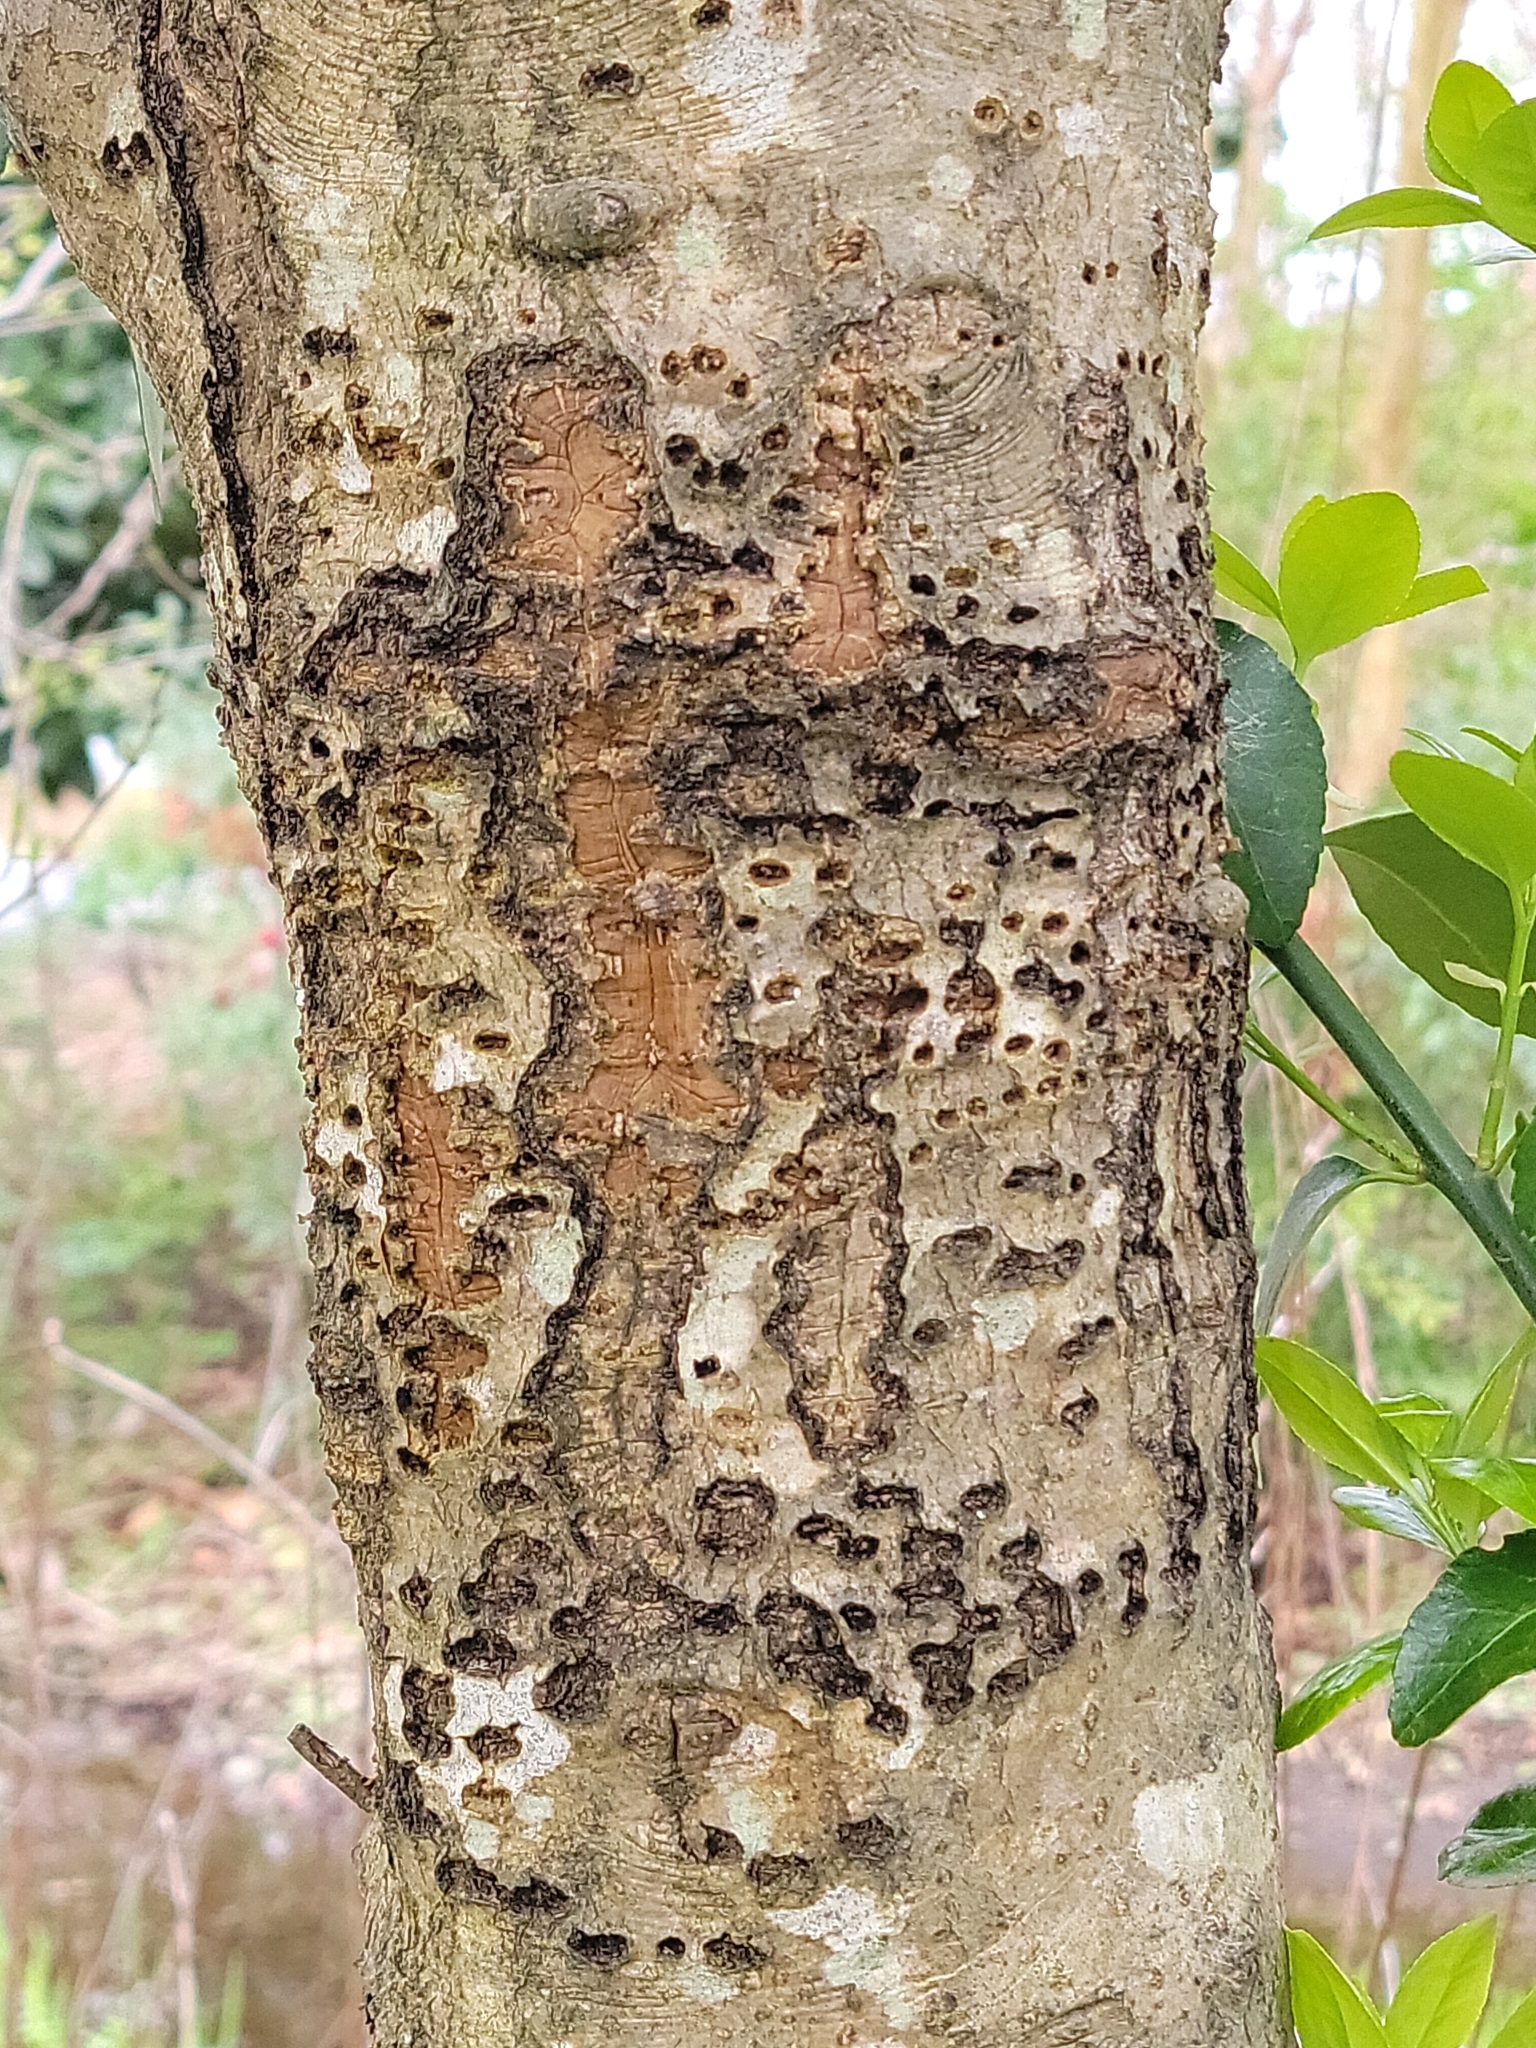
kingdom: Animalia
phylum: Chordata
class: Aves
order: Piciformes
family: Picidae
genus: Sphyrapicus
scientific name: Sphyrapicus varius
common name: Yellow-bellied sapsucker
